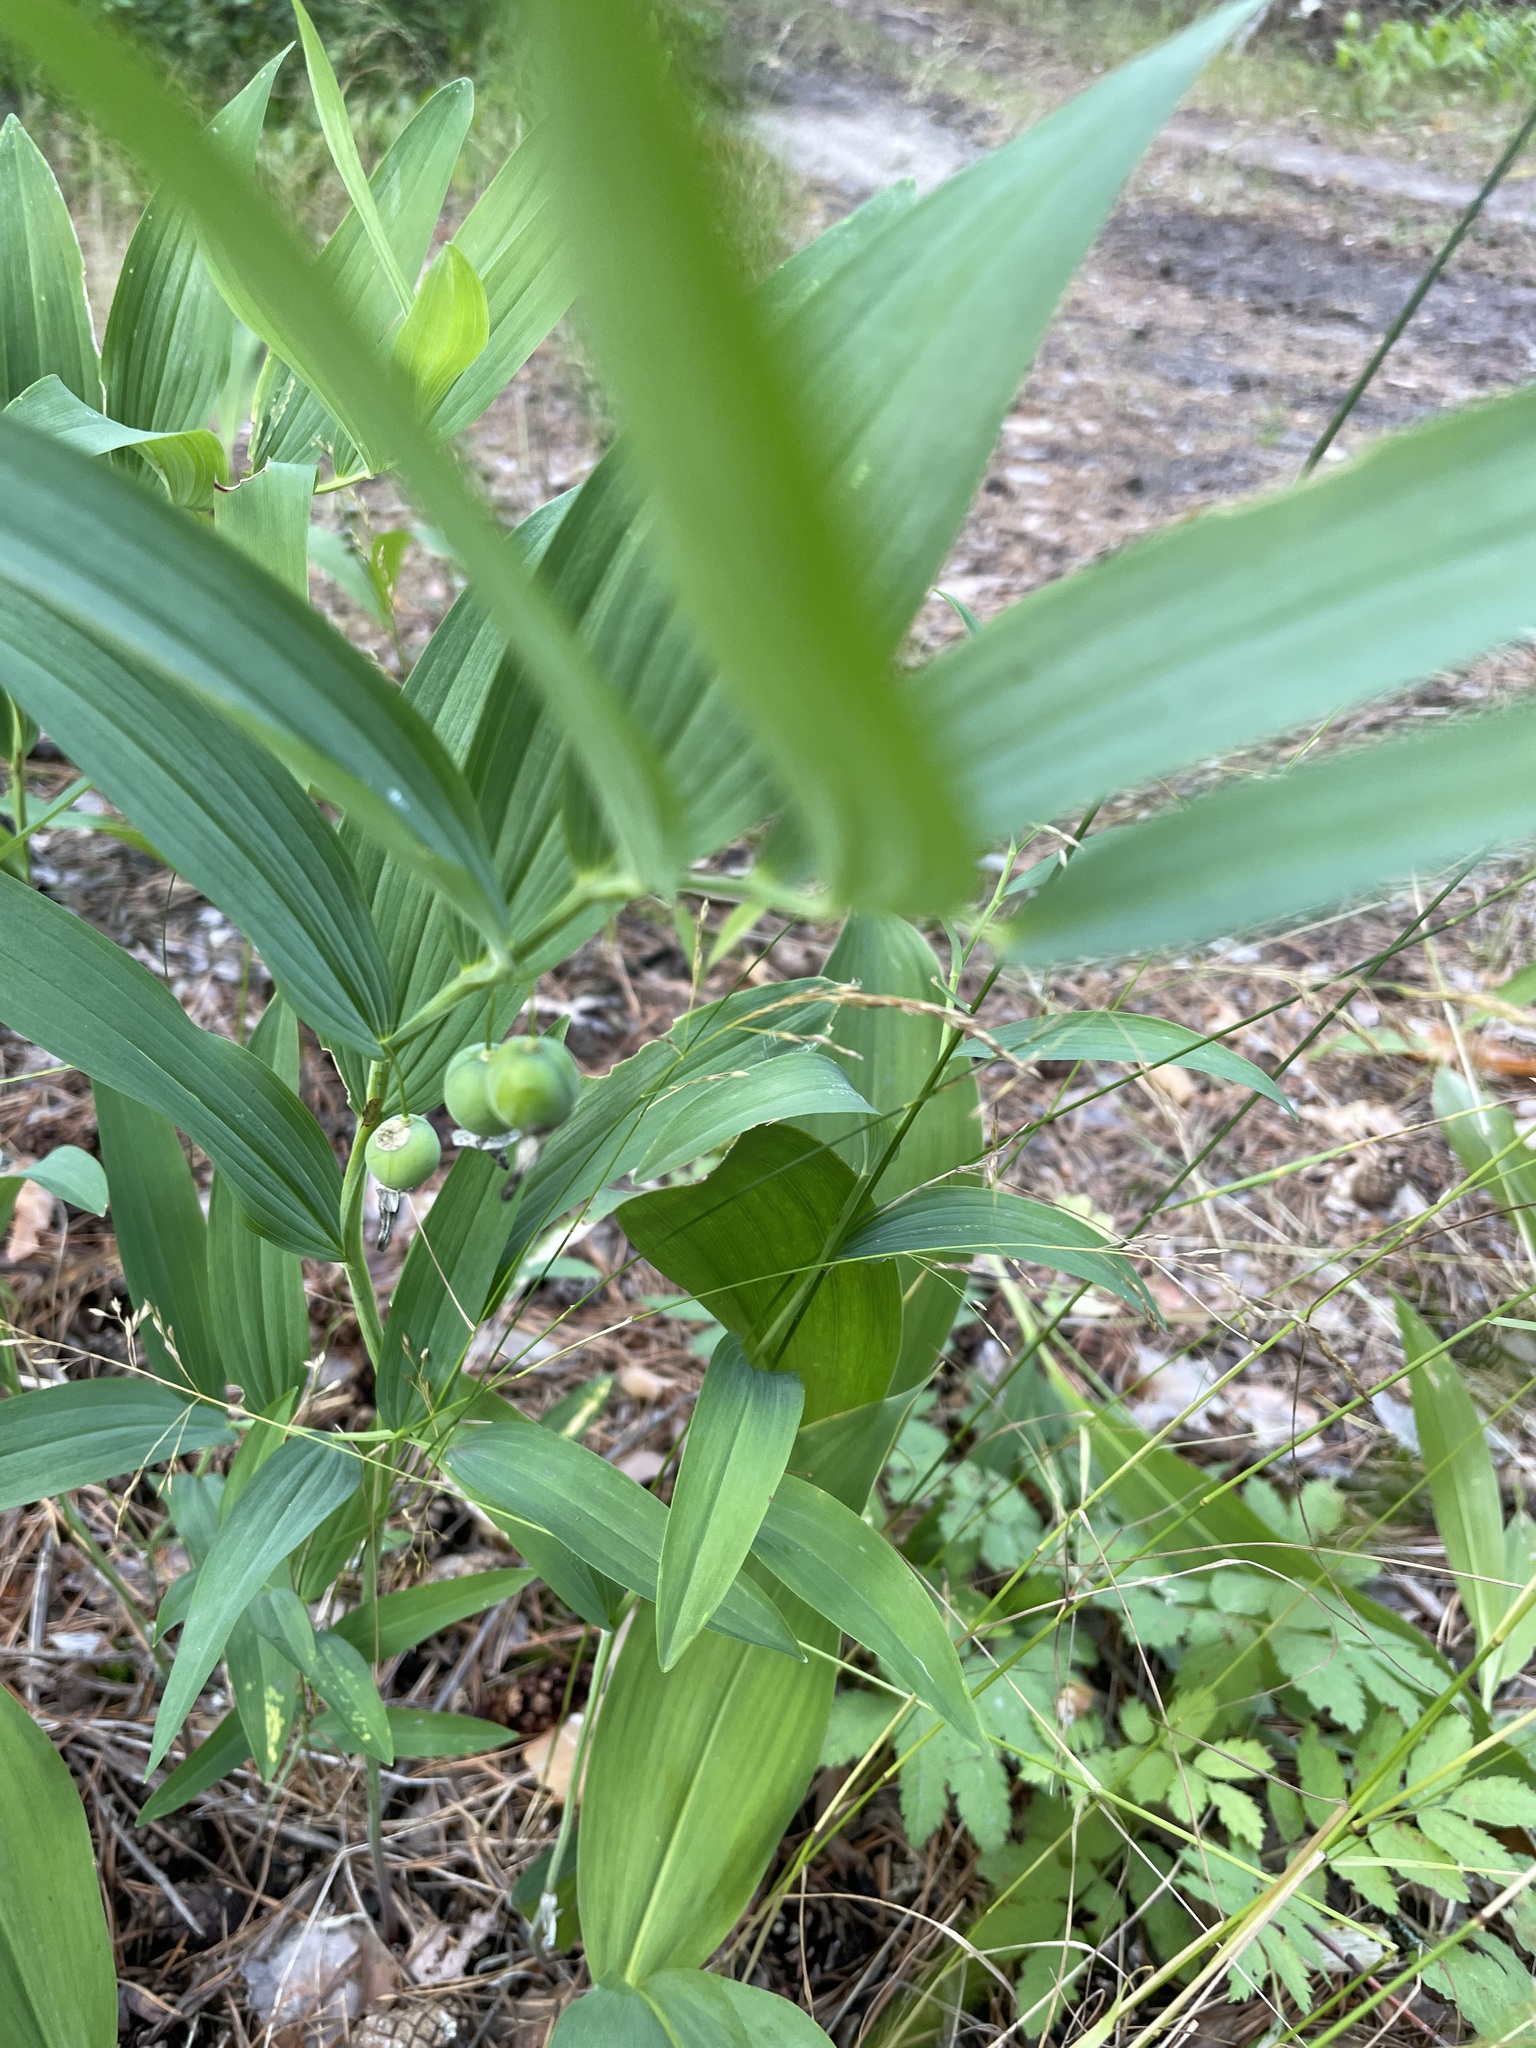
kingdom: Plantae
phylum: Tracheophyta
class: Liliopsida
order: Asparagales
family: Asparagaceae
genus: Polygonatum
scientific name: Polygonatum odoratum
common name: Angular solomon's-seal
